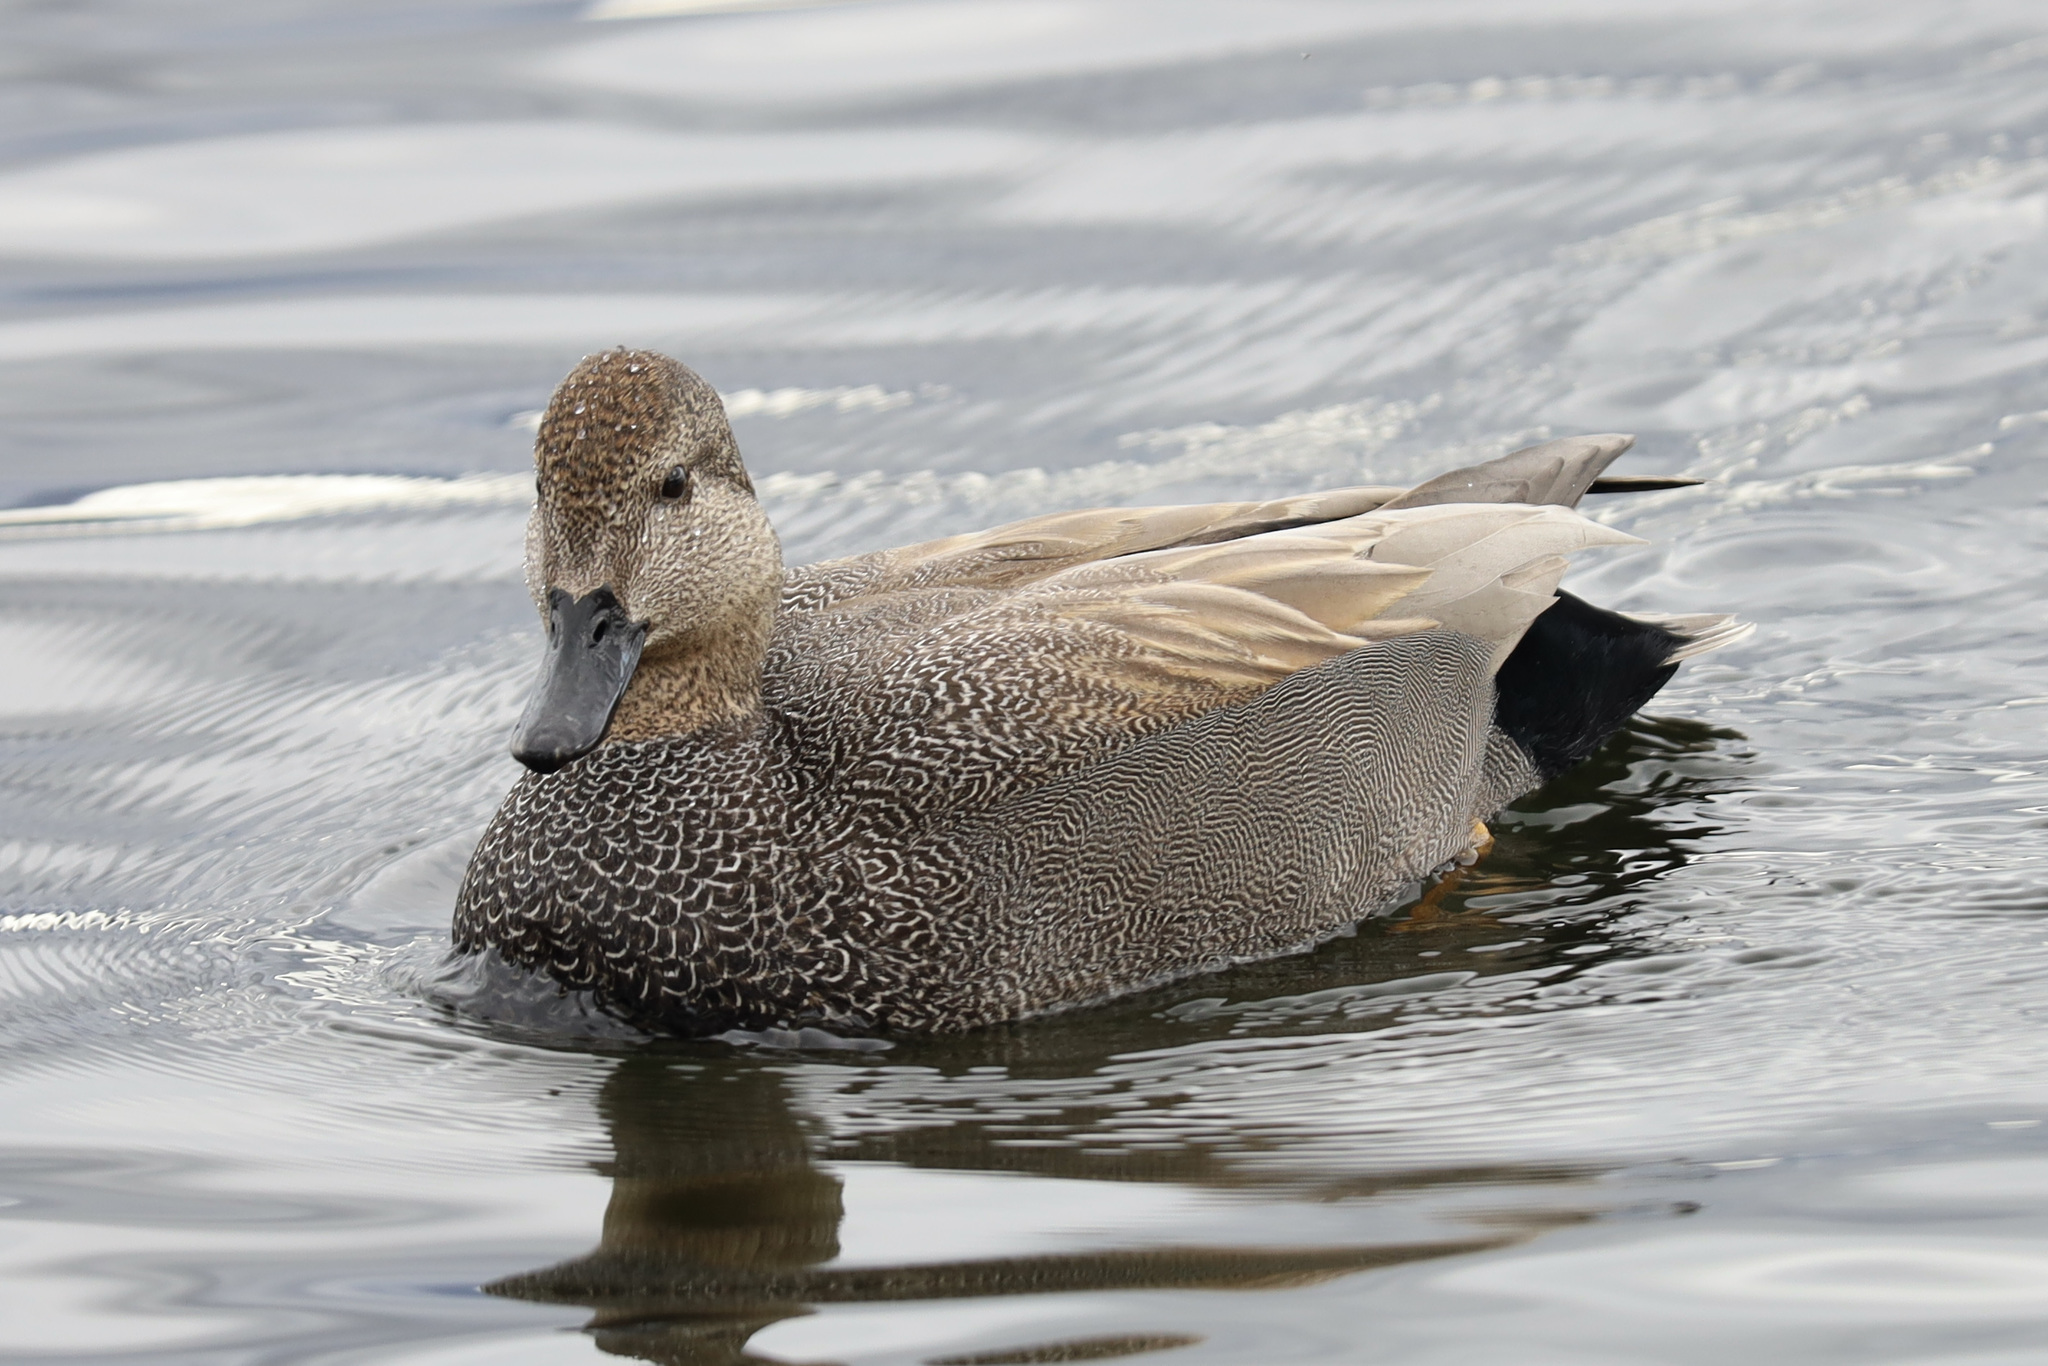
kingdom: Animalia
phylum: Chordata
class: Aves
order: Anseriformes
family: Anatidae
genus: Mareca
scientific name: Mareca strepera
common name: Gadwall
